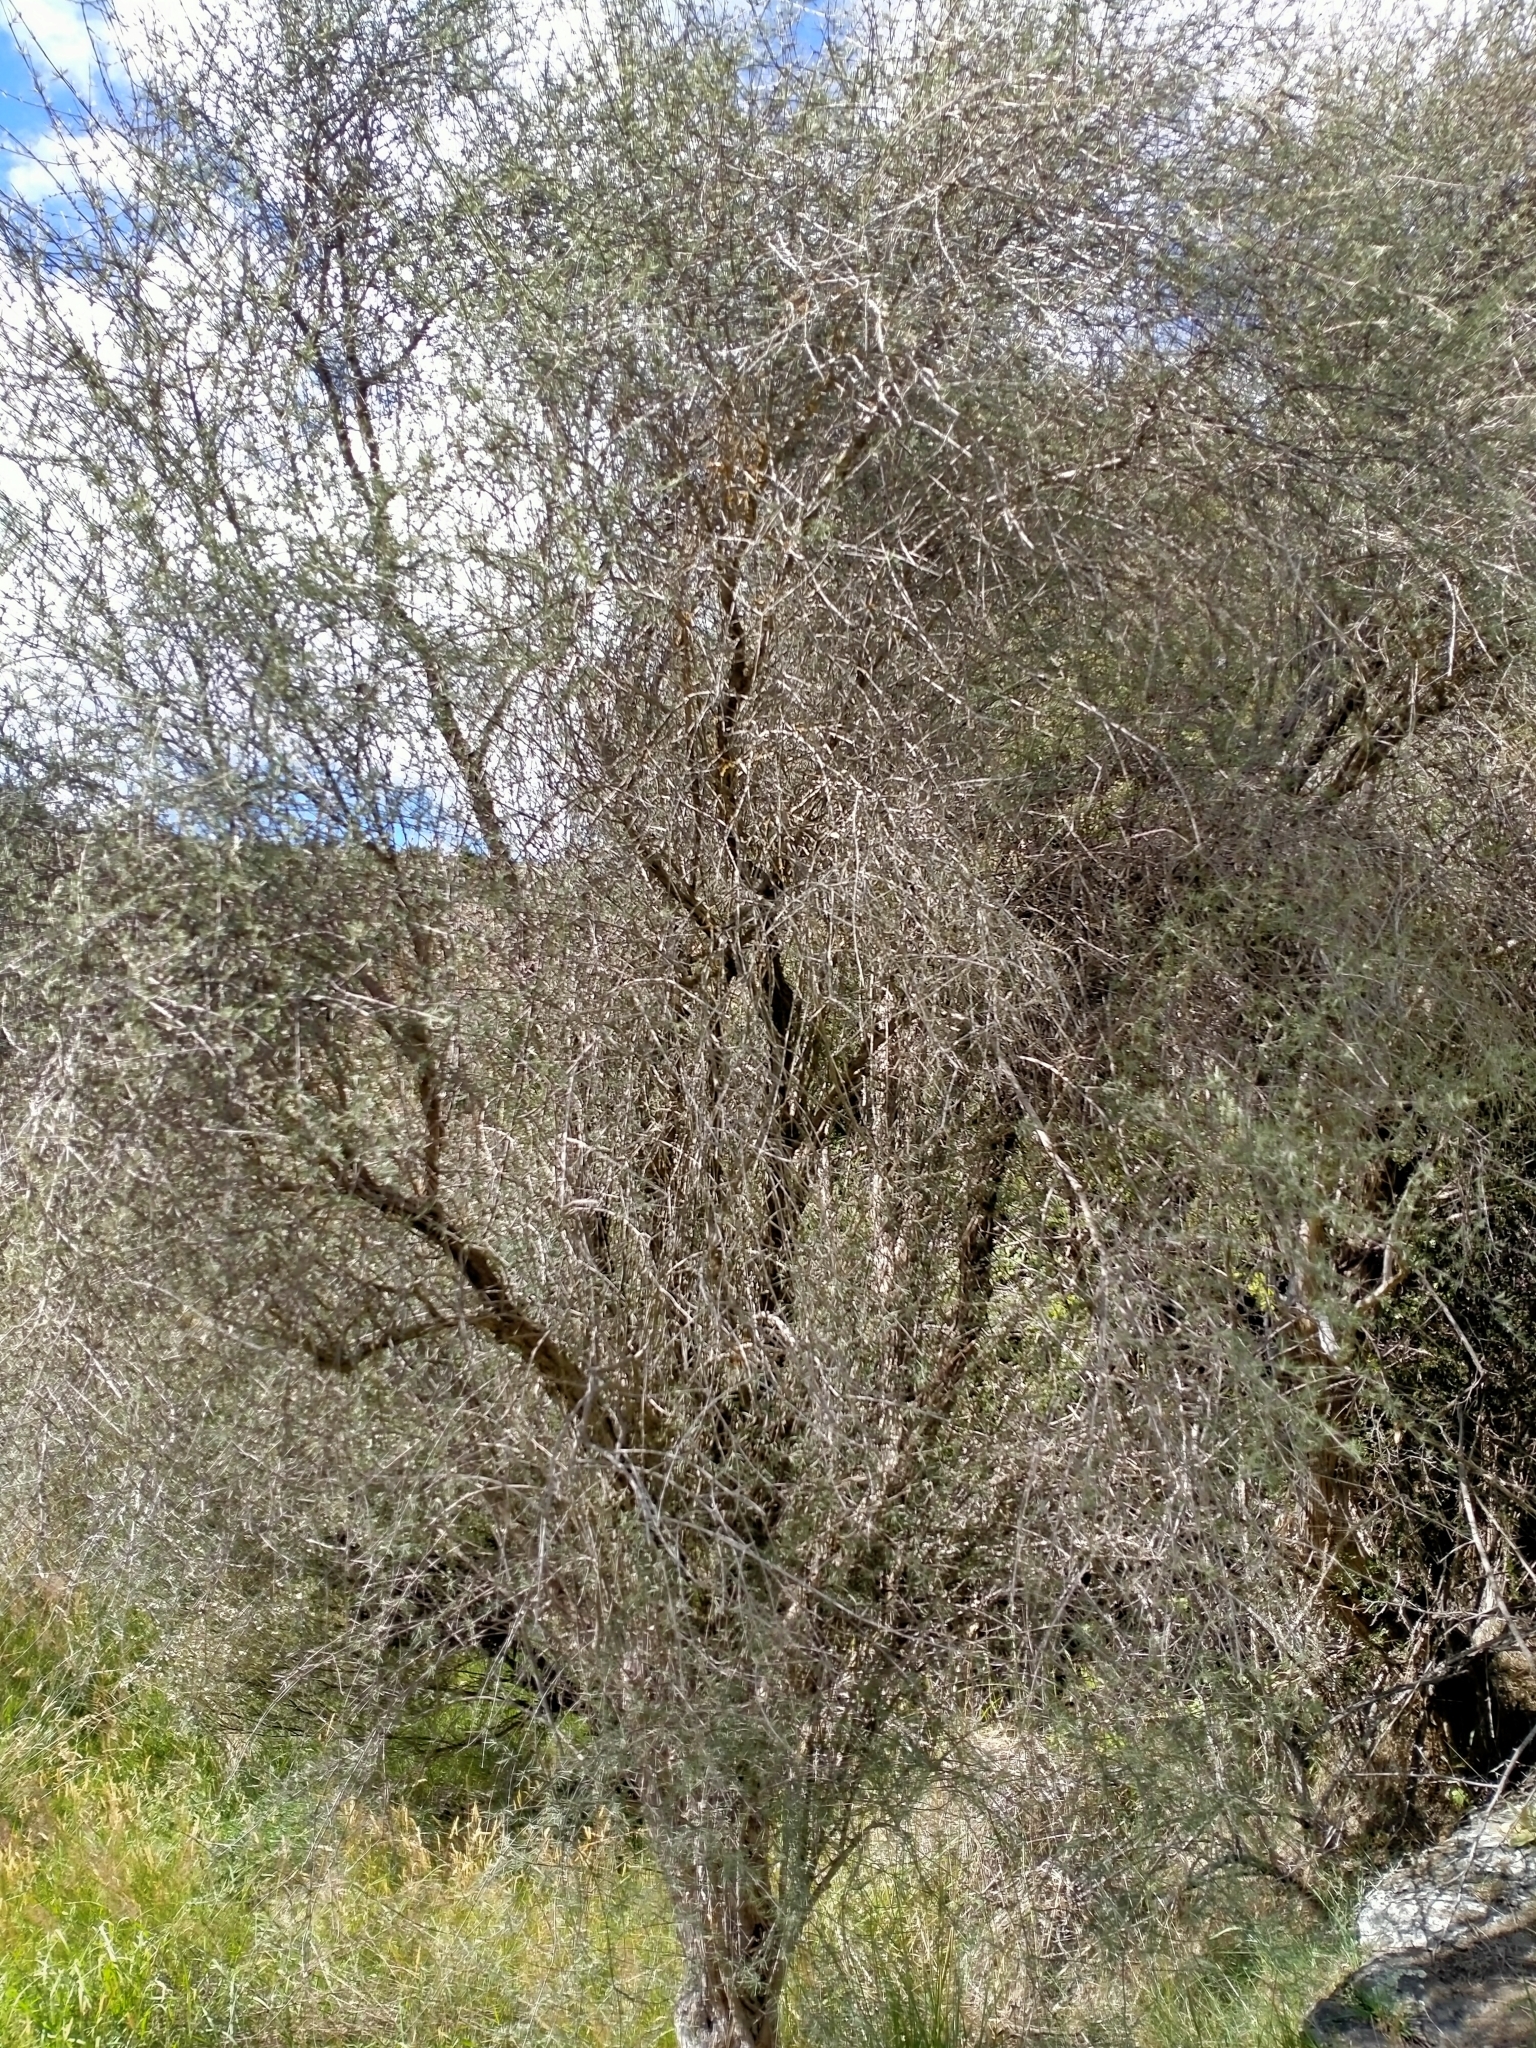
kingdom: Plantae
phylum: Tracheophyta
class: Magnoliopsida
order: Asterales
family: Asteraceae
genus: Olearia
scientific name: Olearia lineata
